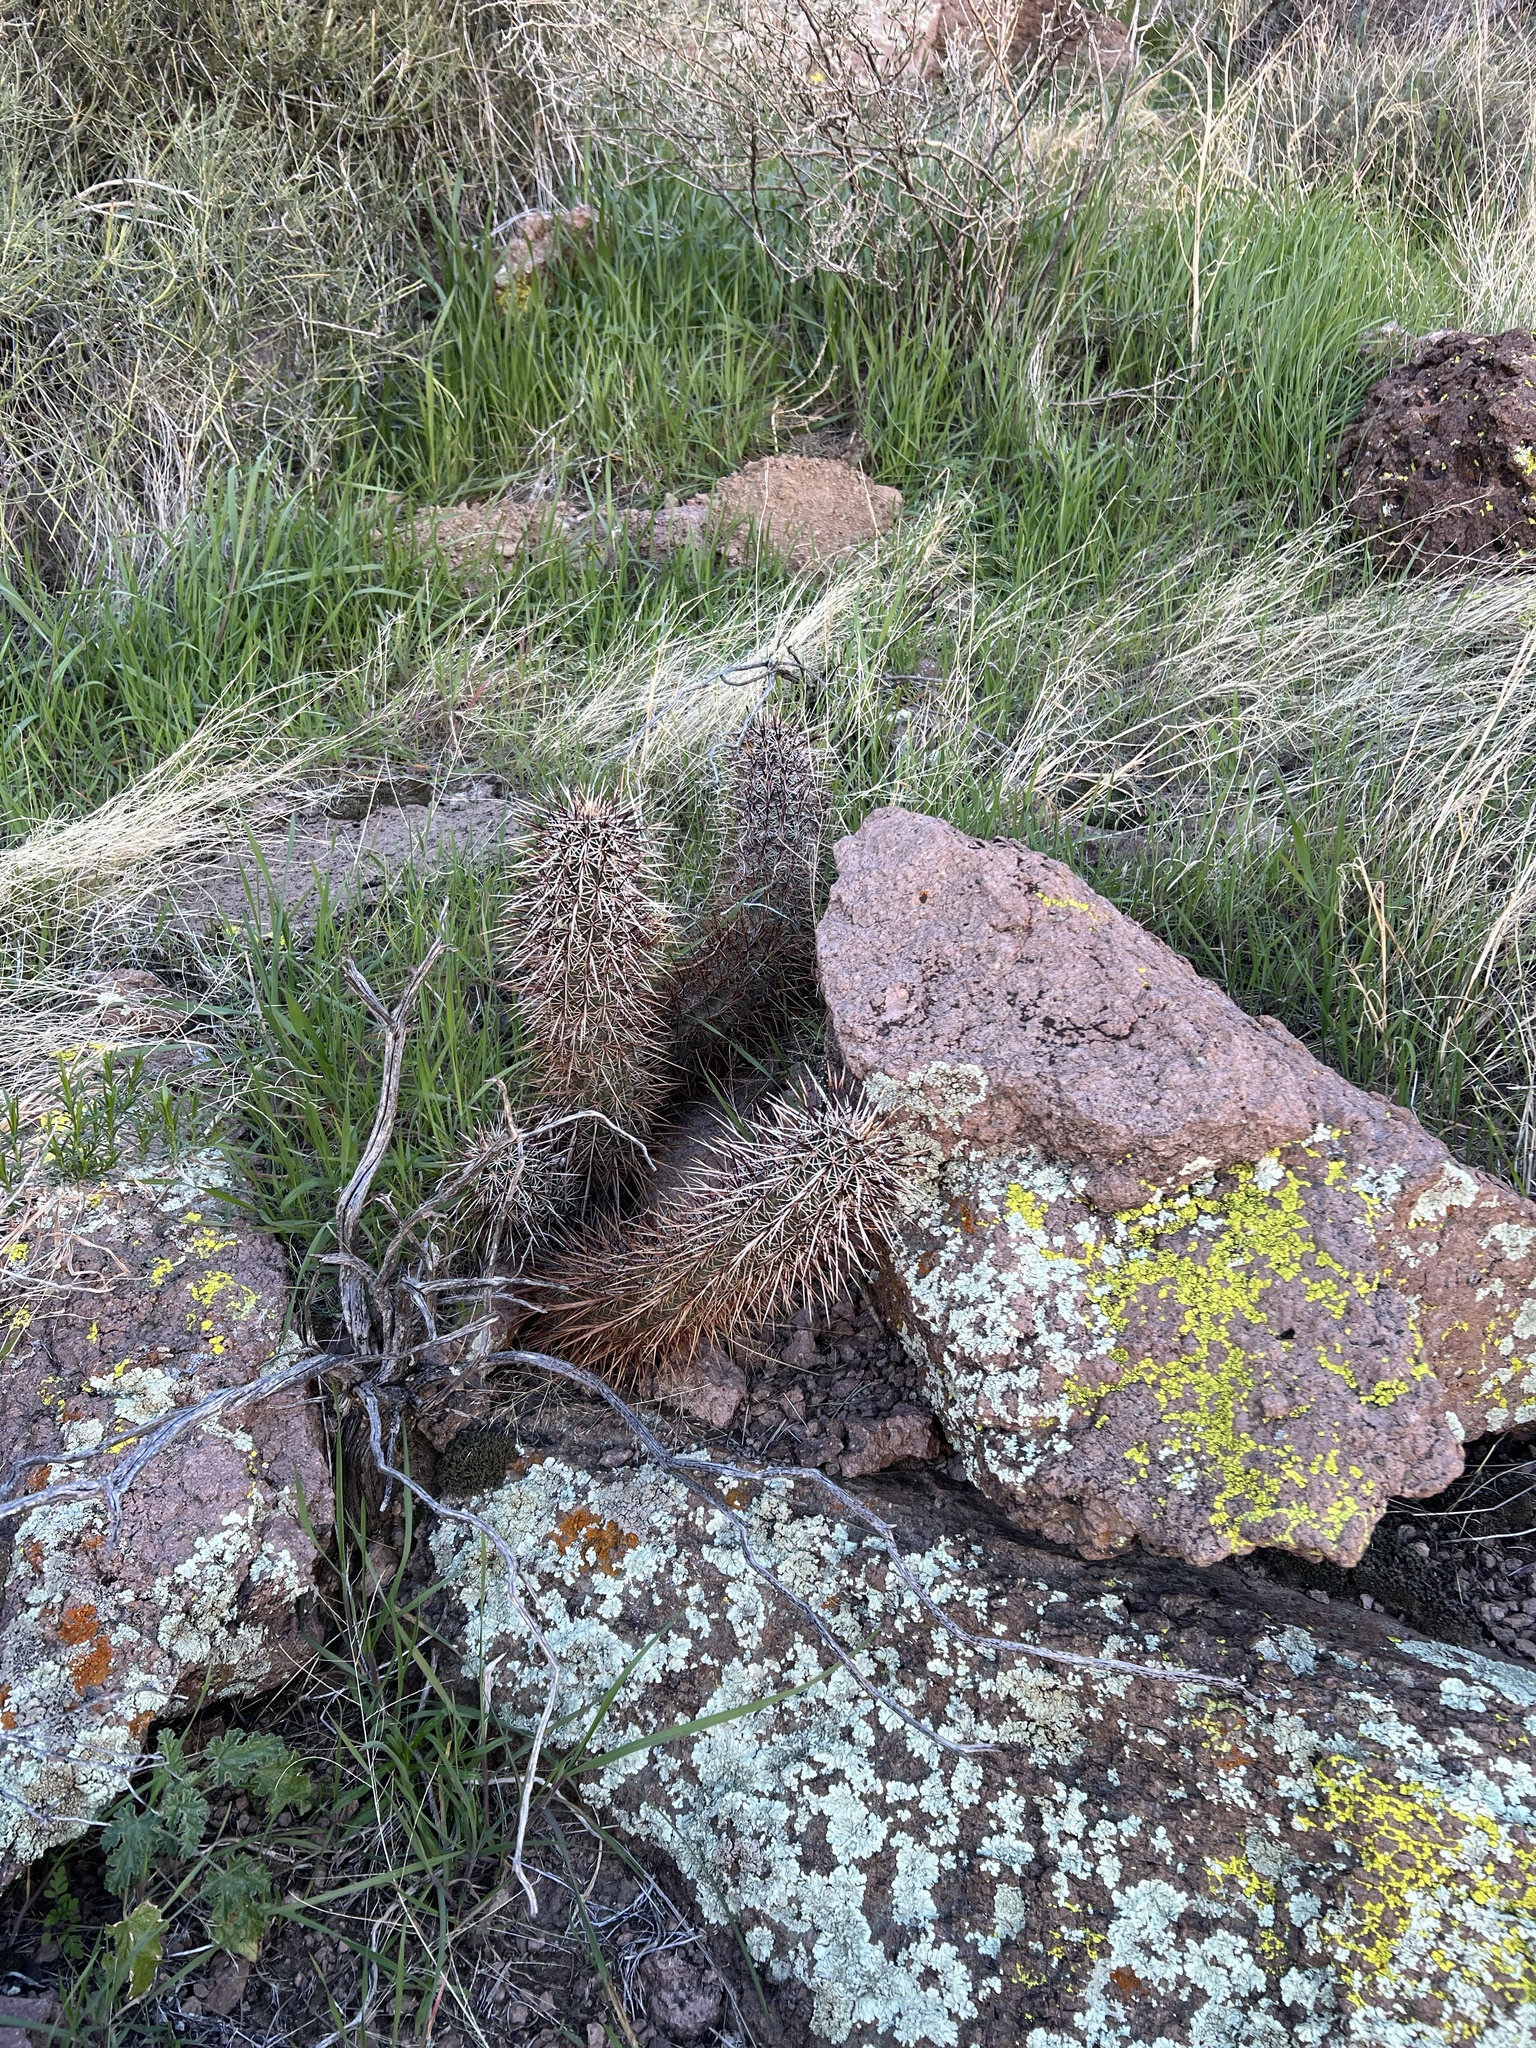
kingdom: Plantae
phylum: Tracheophyta
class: Magnoliopsida
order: Caryophyllales
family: Cactaceae
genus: Echinocereus
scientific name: Echinocereus engelmannii
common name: Engelmann's hedgehog cactus
